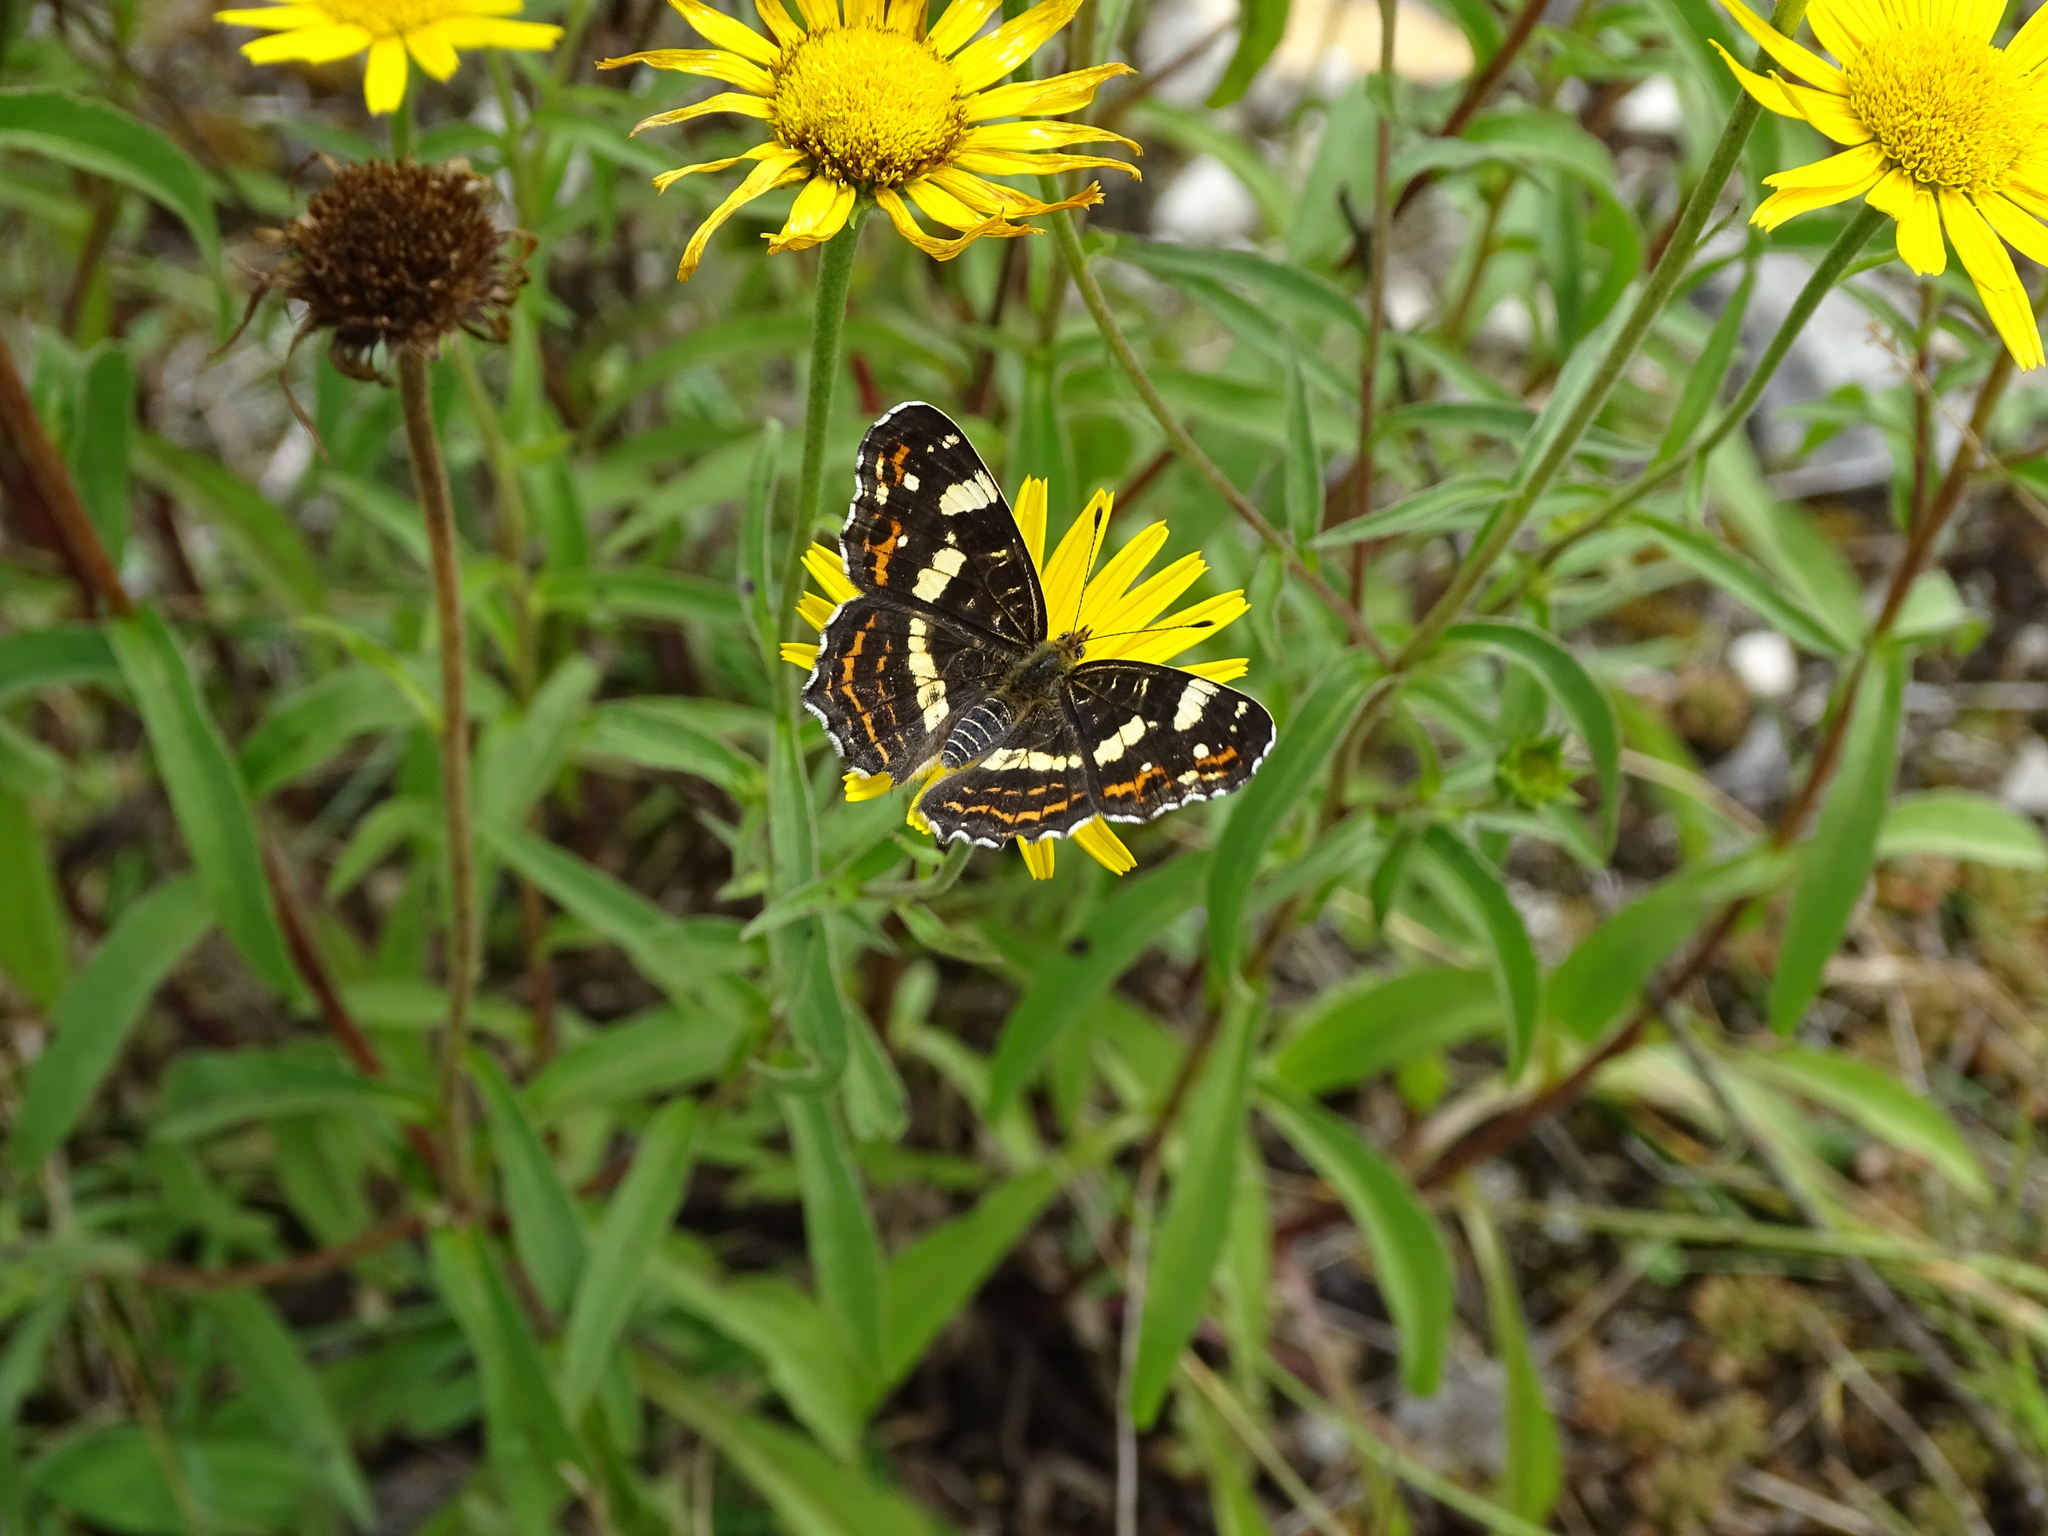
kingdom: Animalia
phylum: Arthropoda
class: Insecta
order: Lepidoptera
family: Nymphalidae
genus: Araschnia
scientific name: Araschnia levana
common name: Map butterfly
